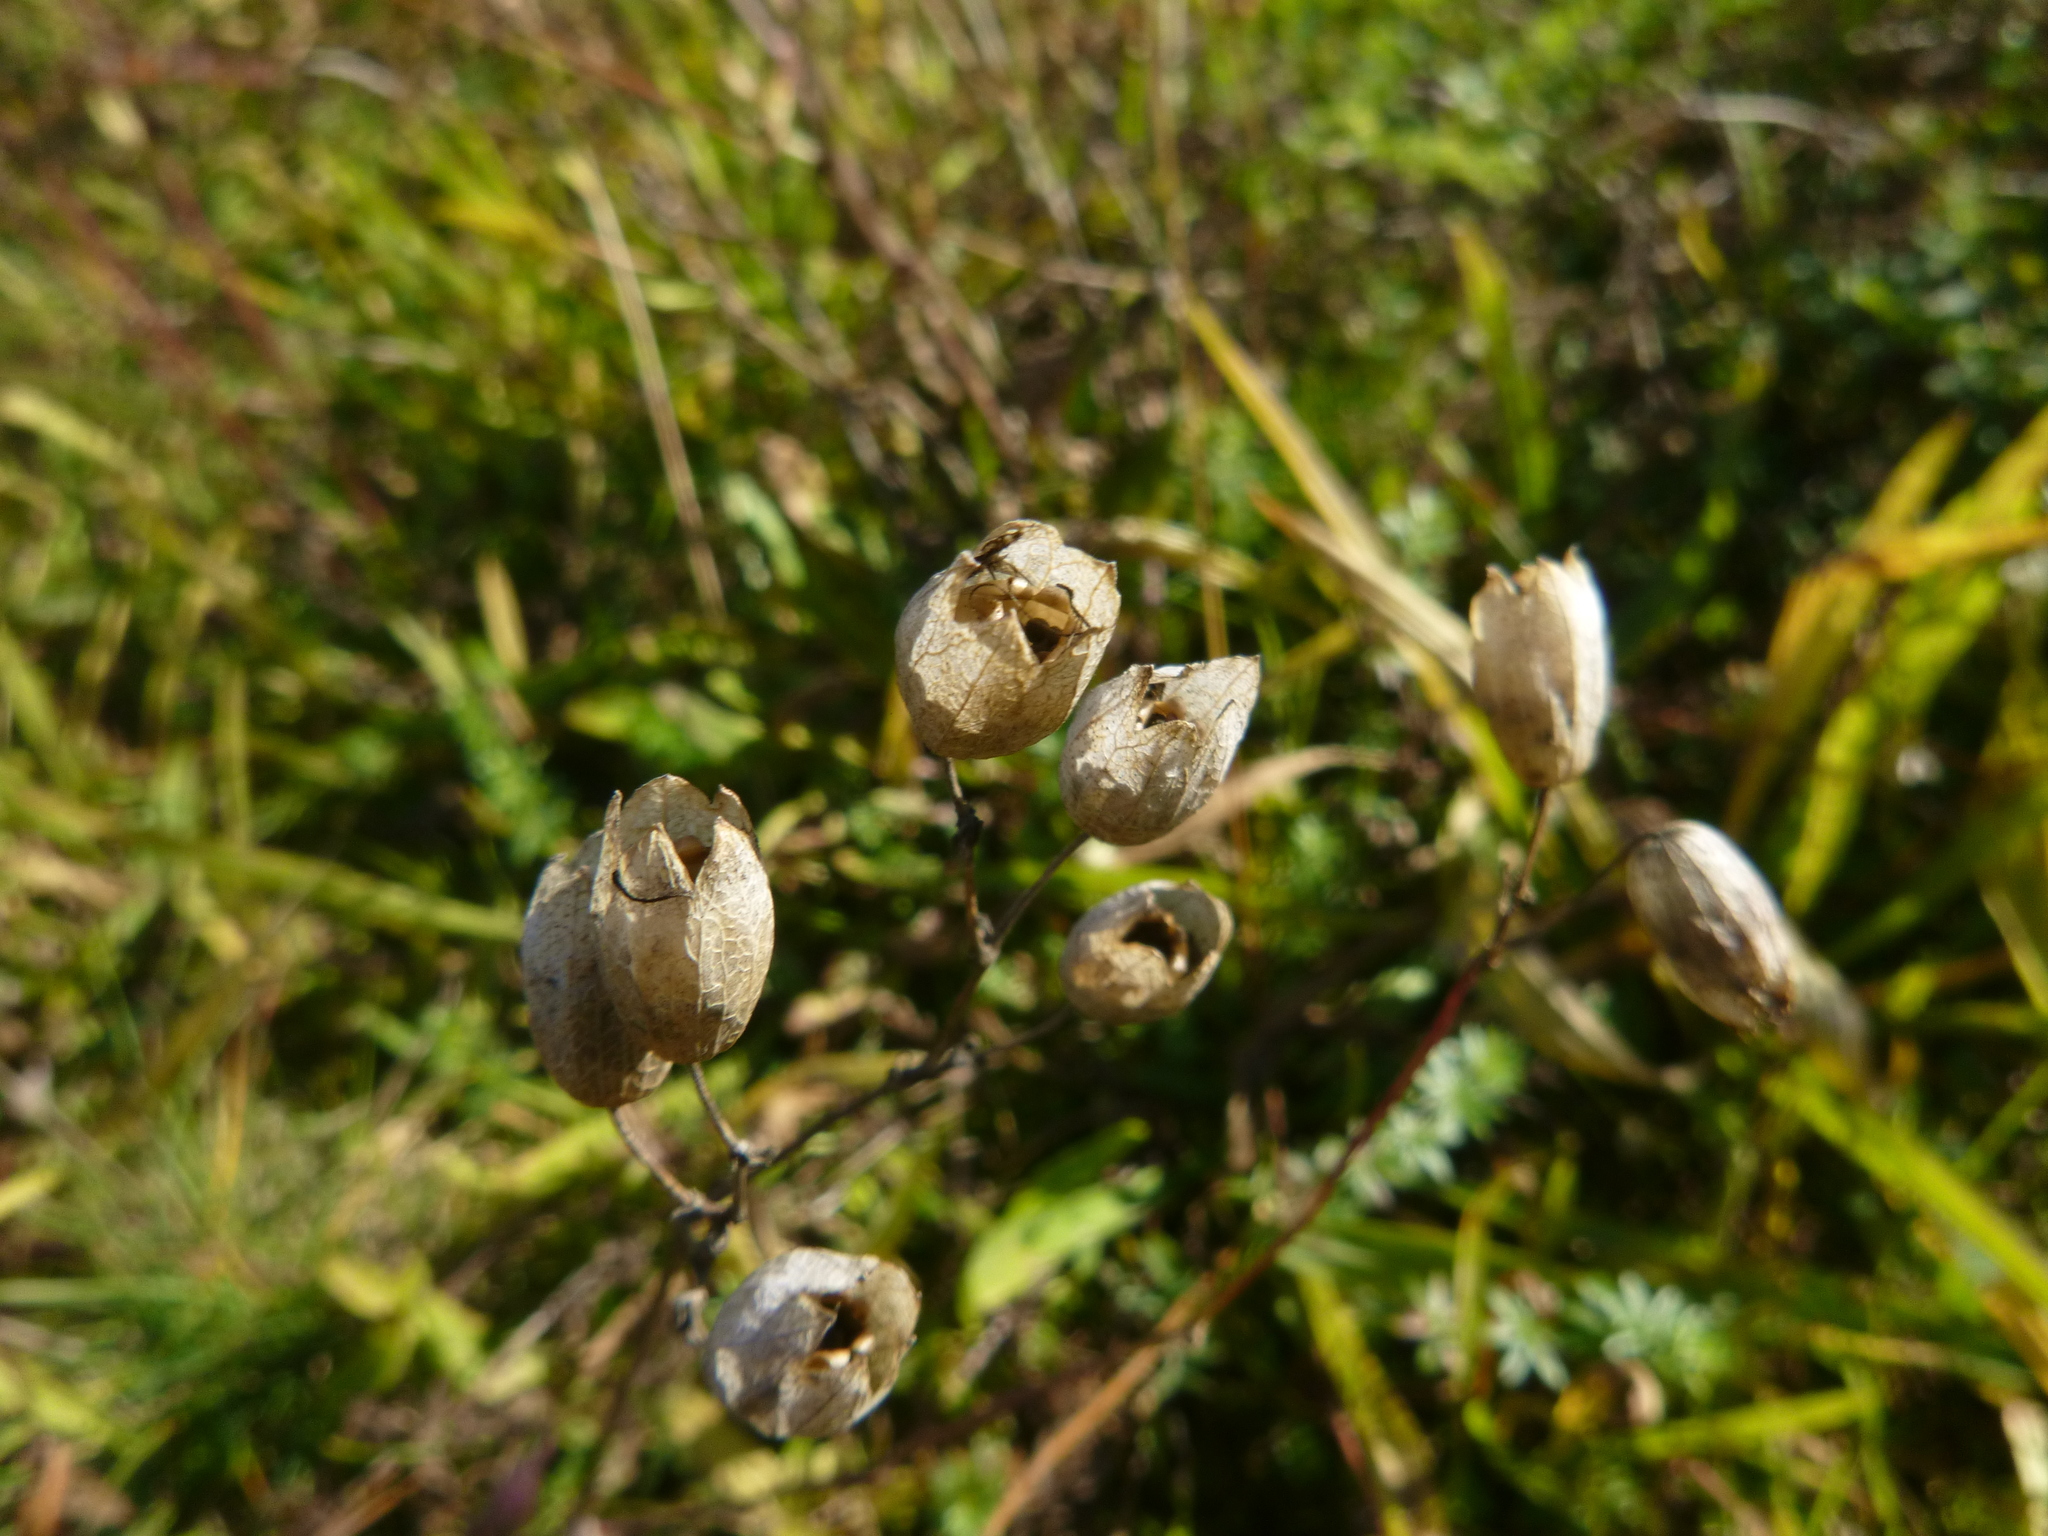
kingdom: Plantae
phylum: Tracheophyta
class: Magnoliopsida
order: Caryophyllales
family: Caryophyllaceae
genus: Silene
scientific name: Silene vulgaris
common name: Bladder campion
